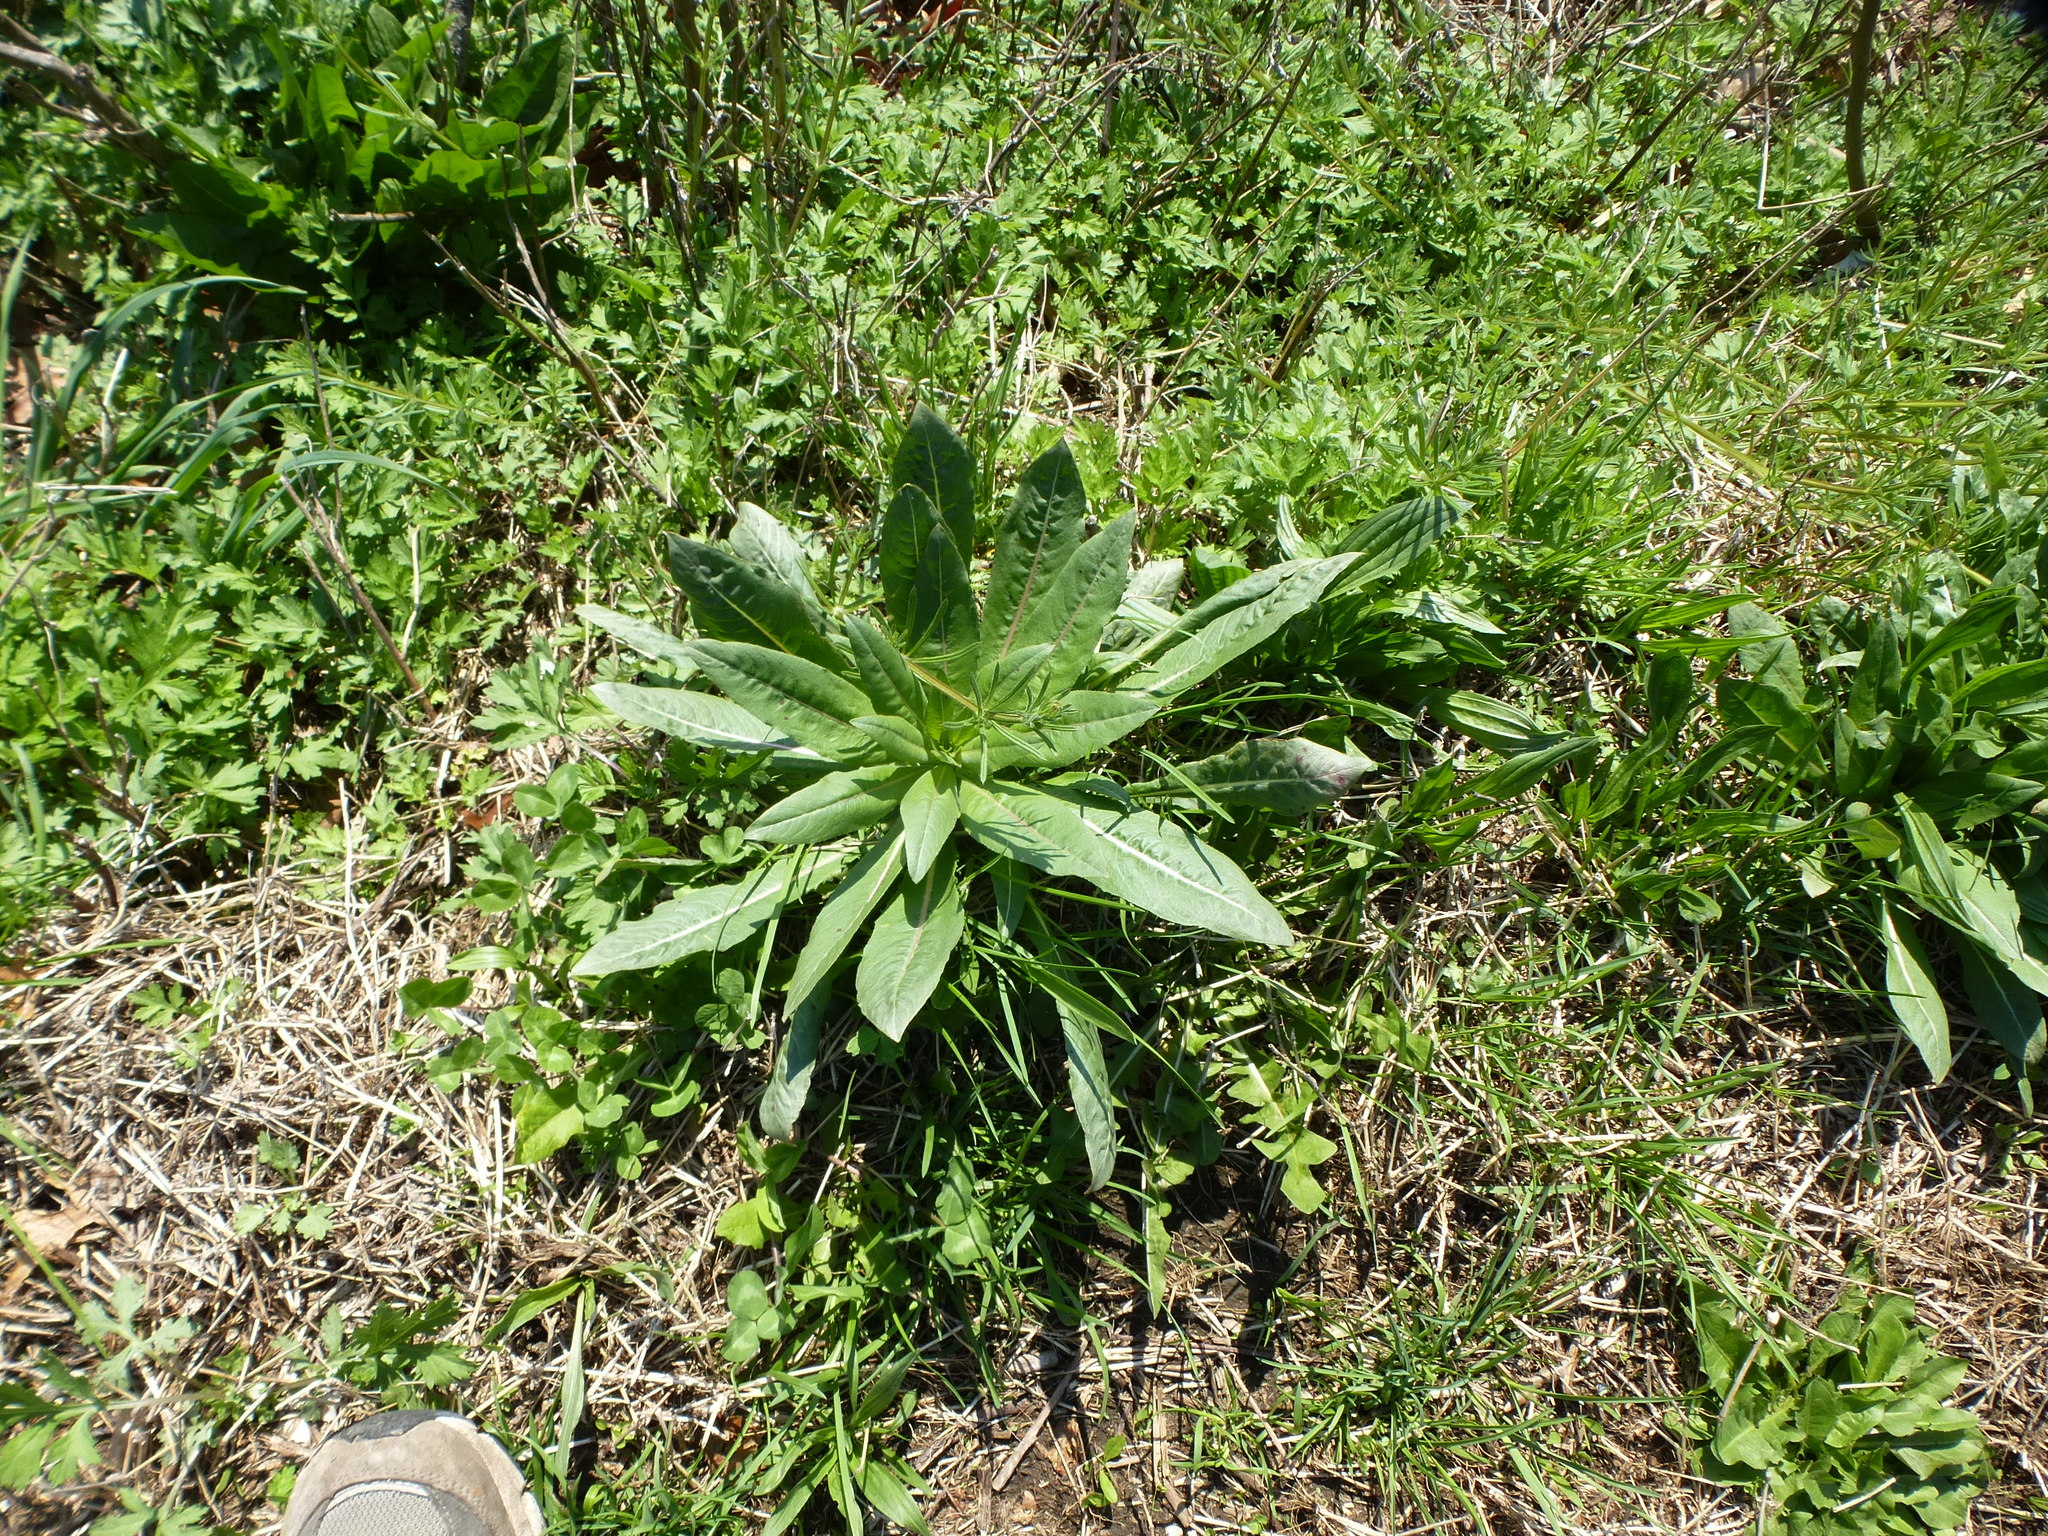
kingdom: Plantae
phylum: Tracheophyta
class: Magnoliopsida
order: Myrtales
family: Onagraceae
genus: Oenothera
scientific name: Oenothera biennis
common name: Common evening-primrose
